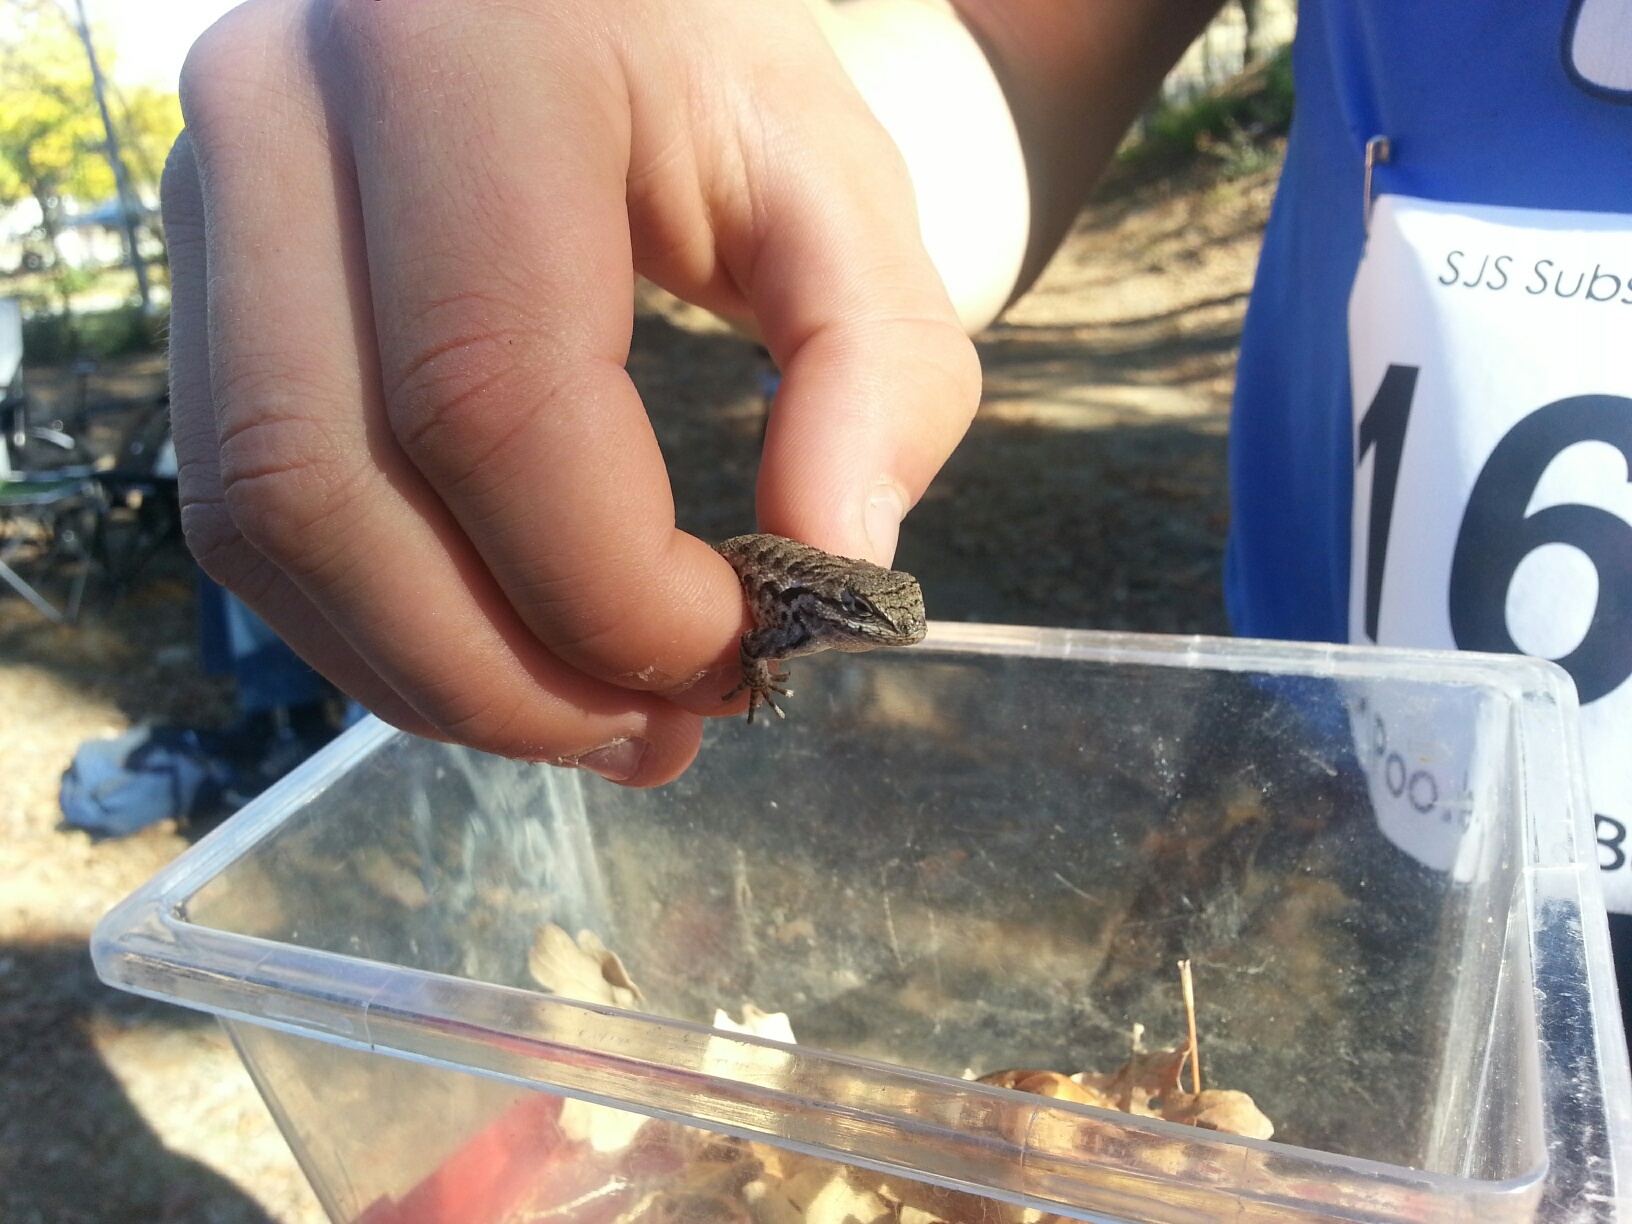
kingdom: Animalia
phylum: Chordata
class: Squamata
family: Phrynosomatidae
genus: Sceloporus
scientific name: Sceloporus occidentalis
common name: Western fence lizard
